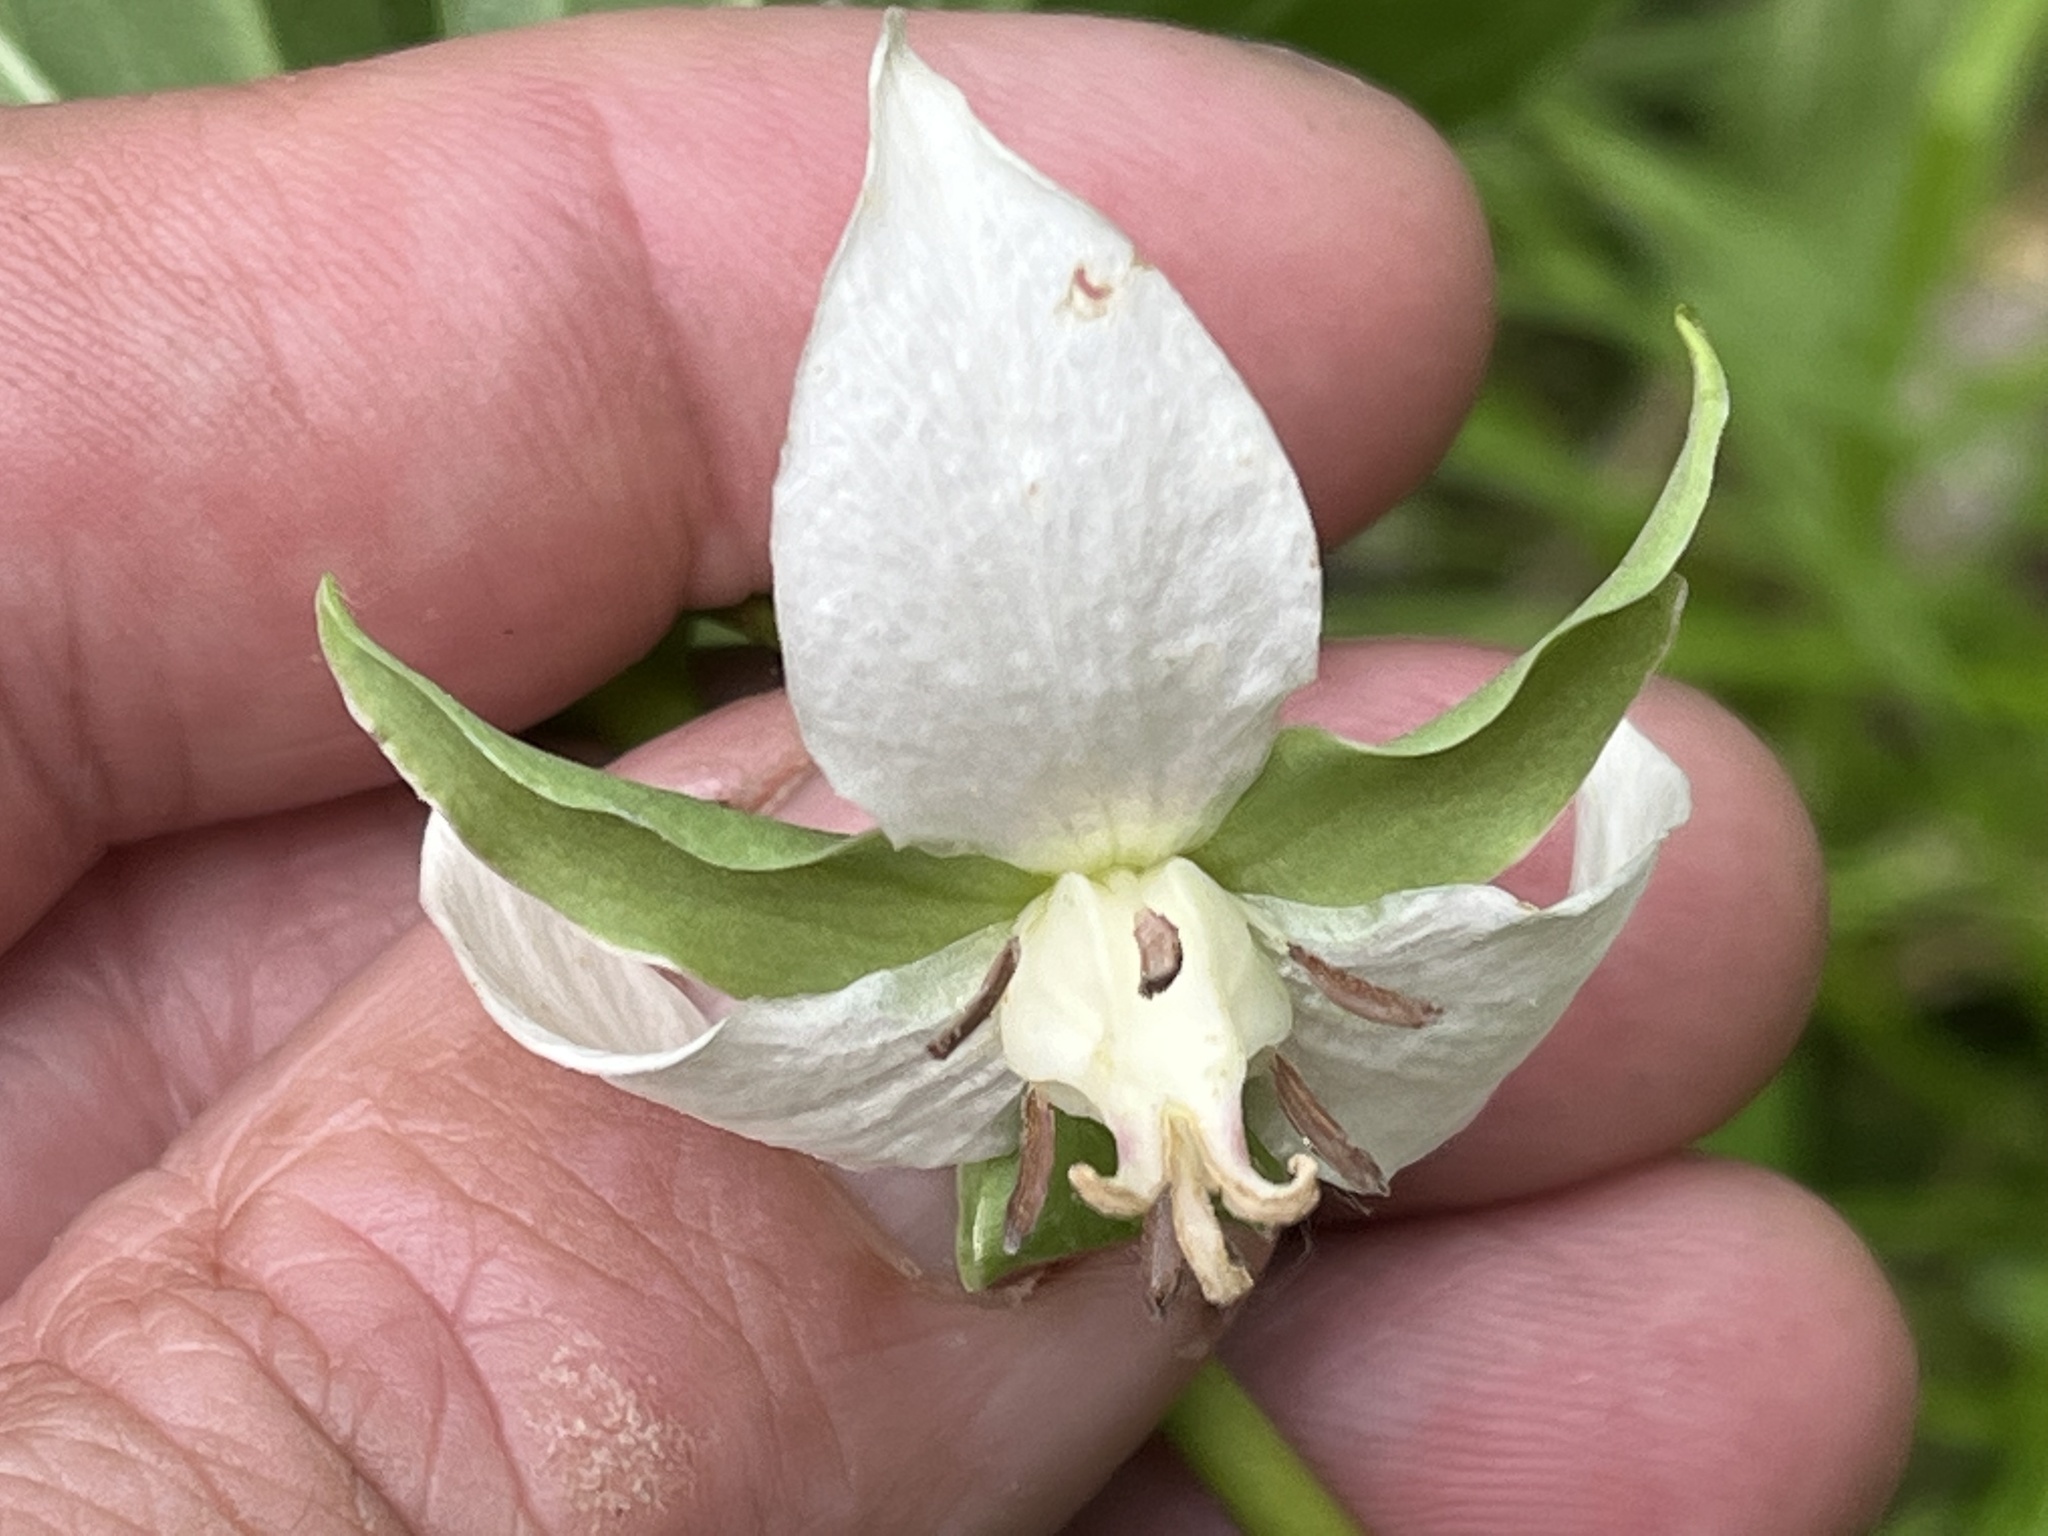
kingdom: Plantae
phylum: Tracheophyta
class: Liliopsida
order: Liliales
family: Melanthiaceae
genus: Trillium
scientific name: Trillium cernuum
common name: Nodding trillium
